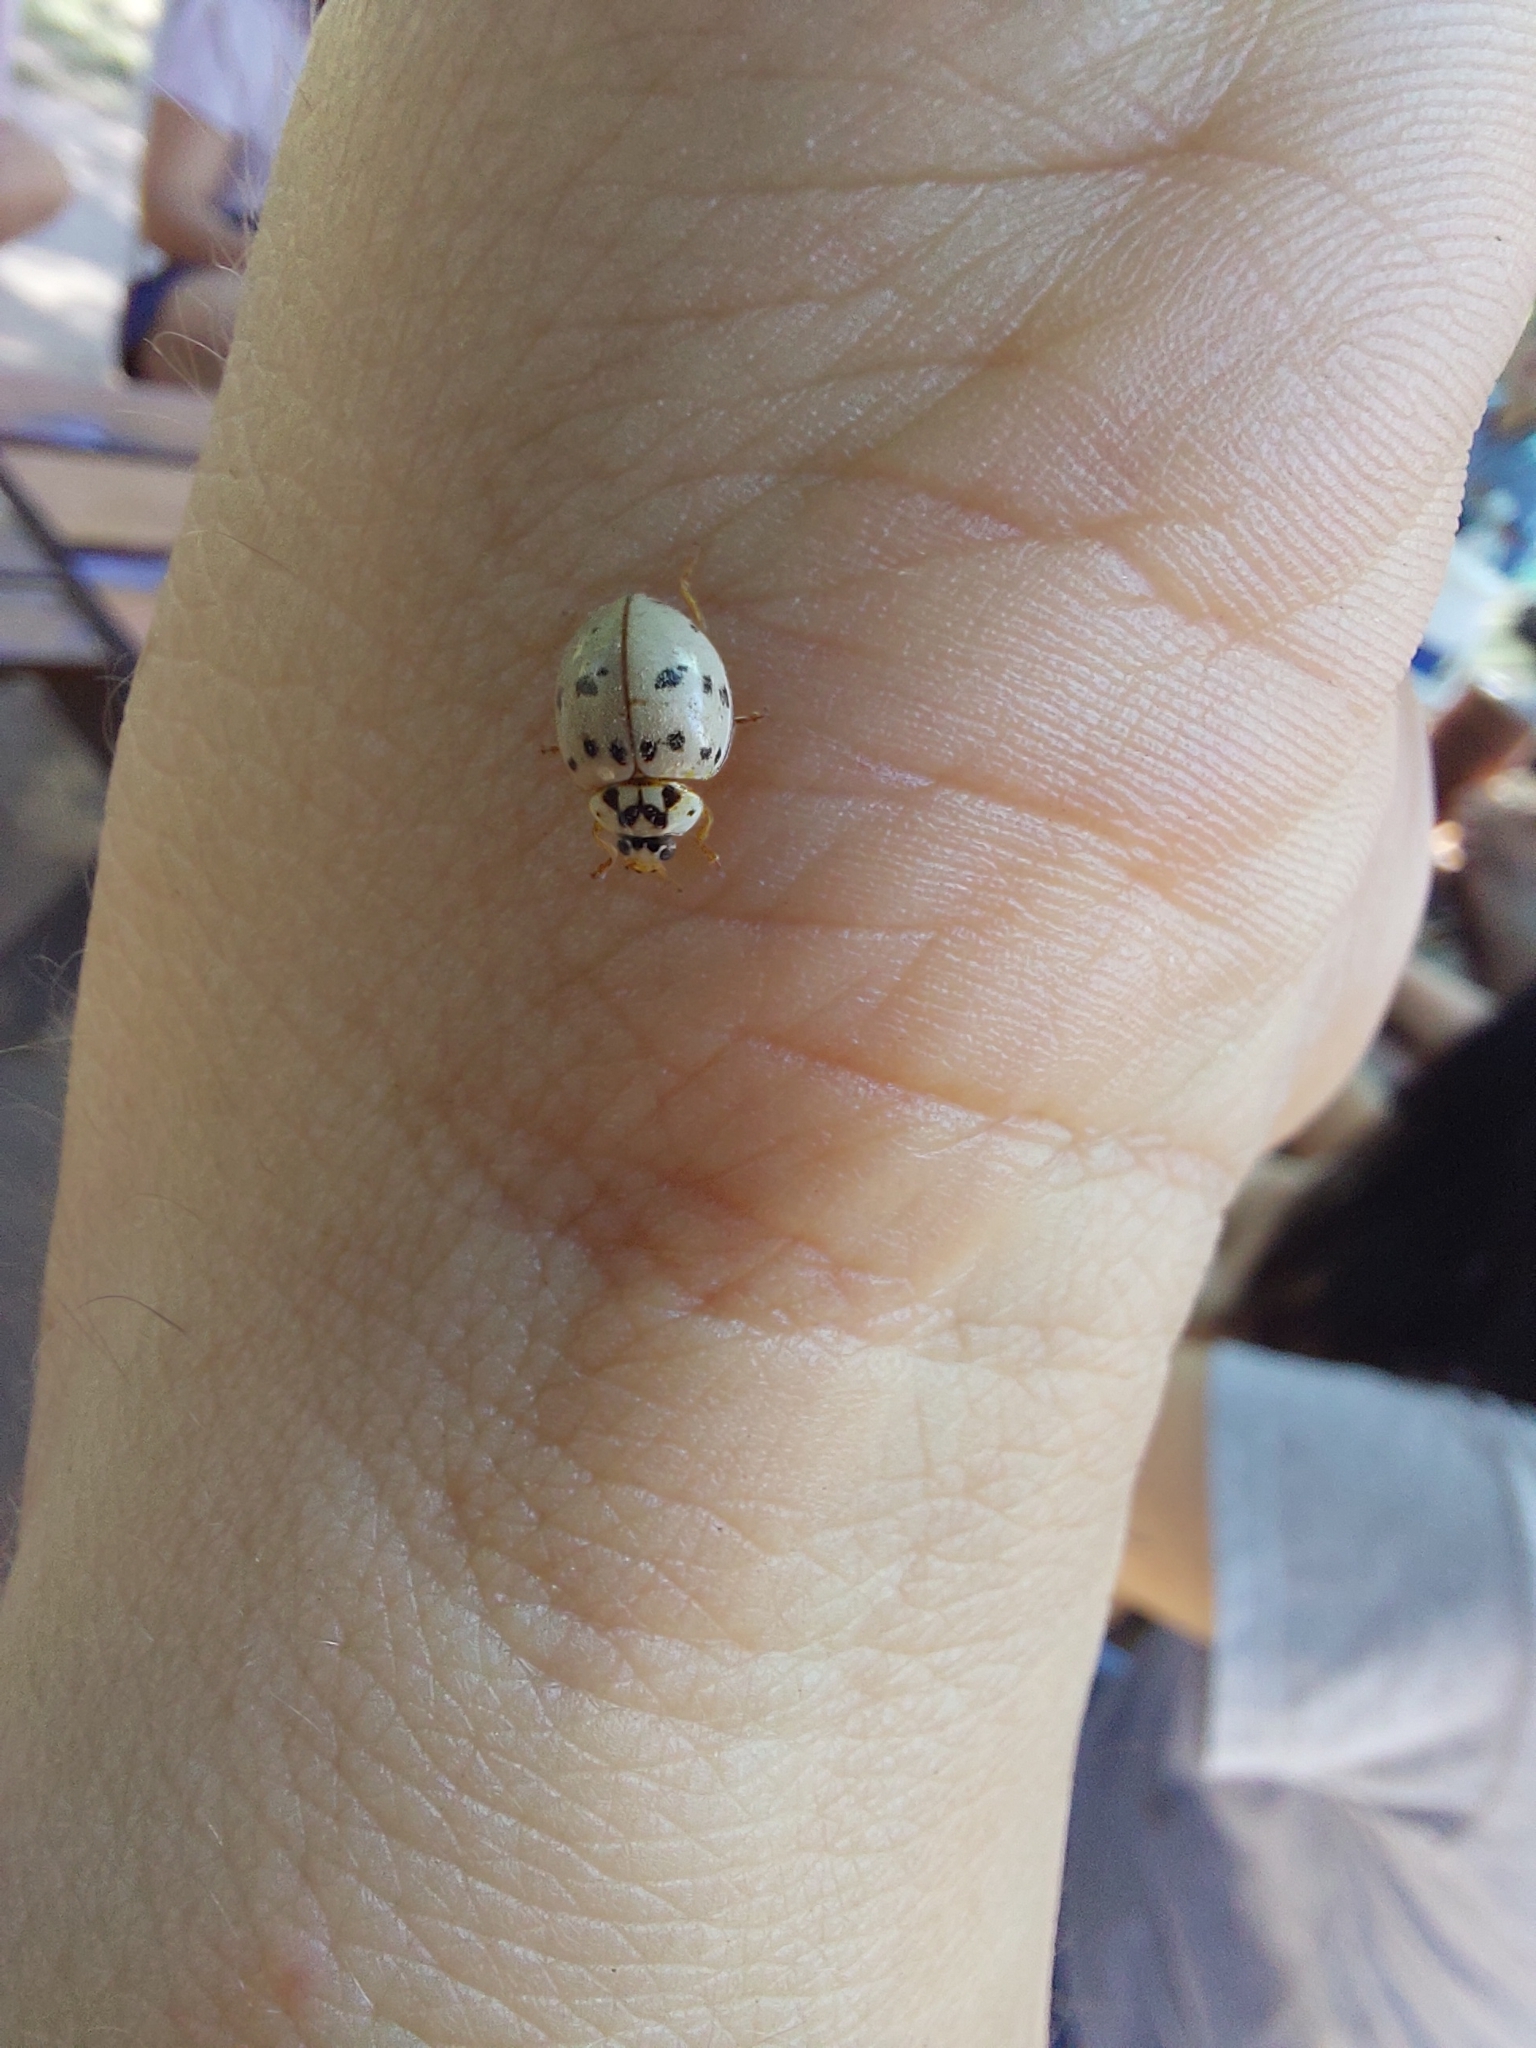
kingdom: Animalia
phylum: Arthropoda
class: Insecta
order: Coleoptera
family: Coccinellidae
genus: Olla
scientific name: Olla v-nigrum
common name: Ashy gray lady beetle
